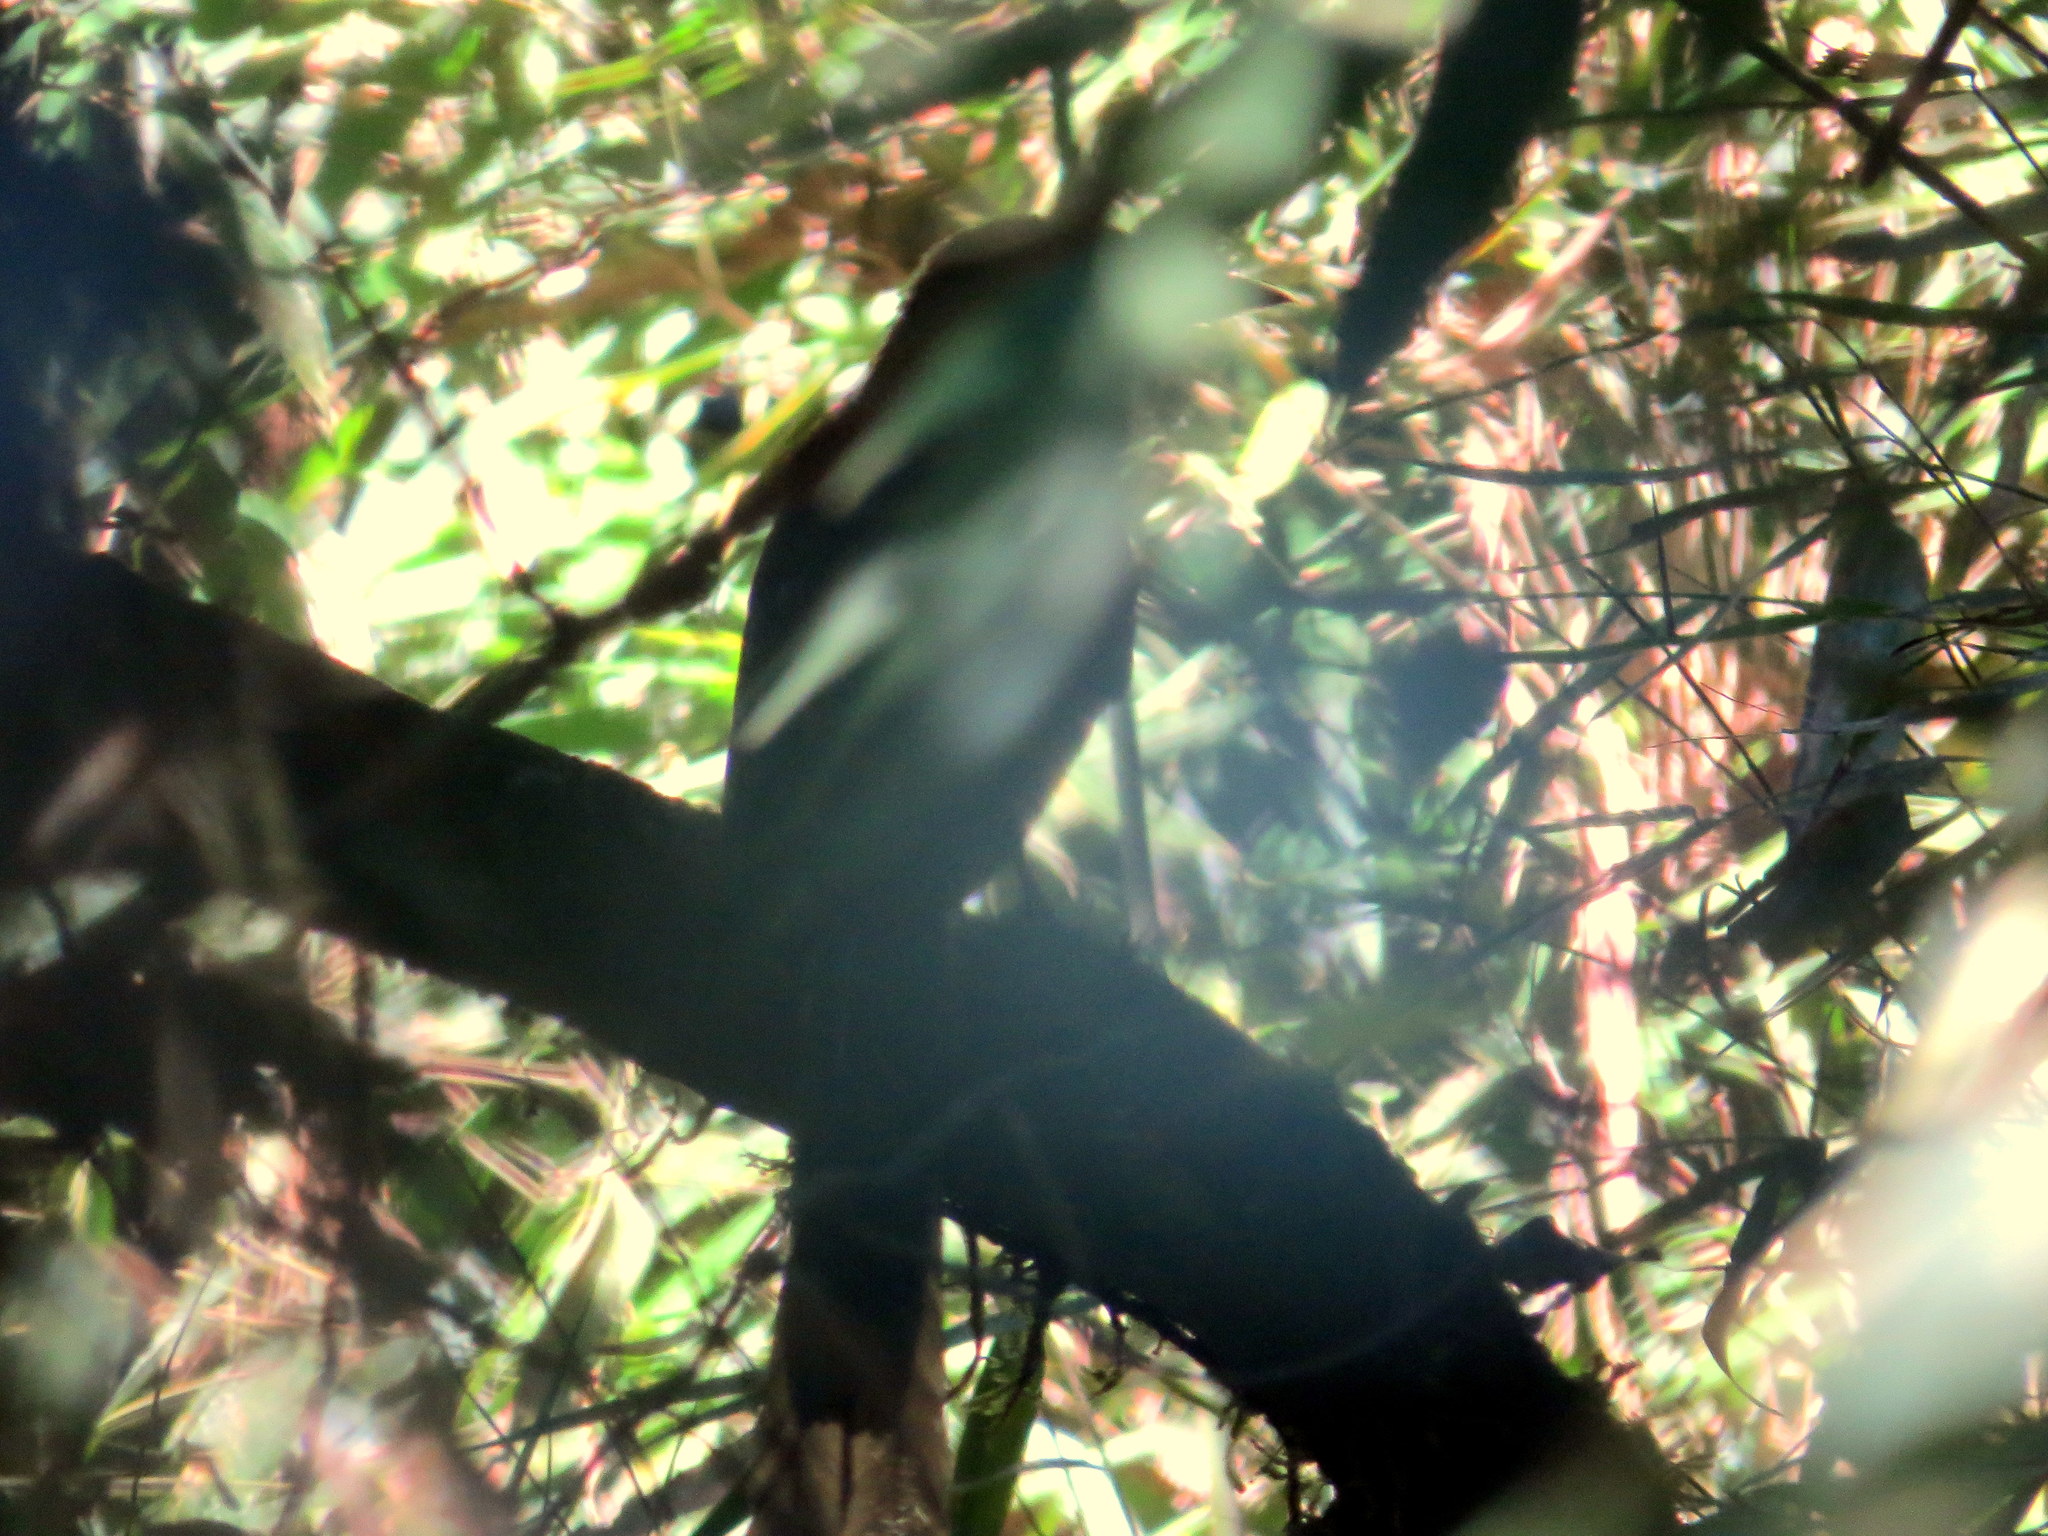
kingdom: Animalia
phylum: Chordata
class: Aves
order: Coraciiformes
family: Momotidae
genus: Baryphthengus
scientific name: Baryphthengus ruficapillus
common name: Rufous-capped motmot
